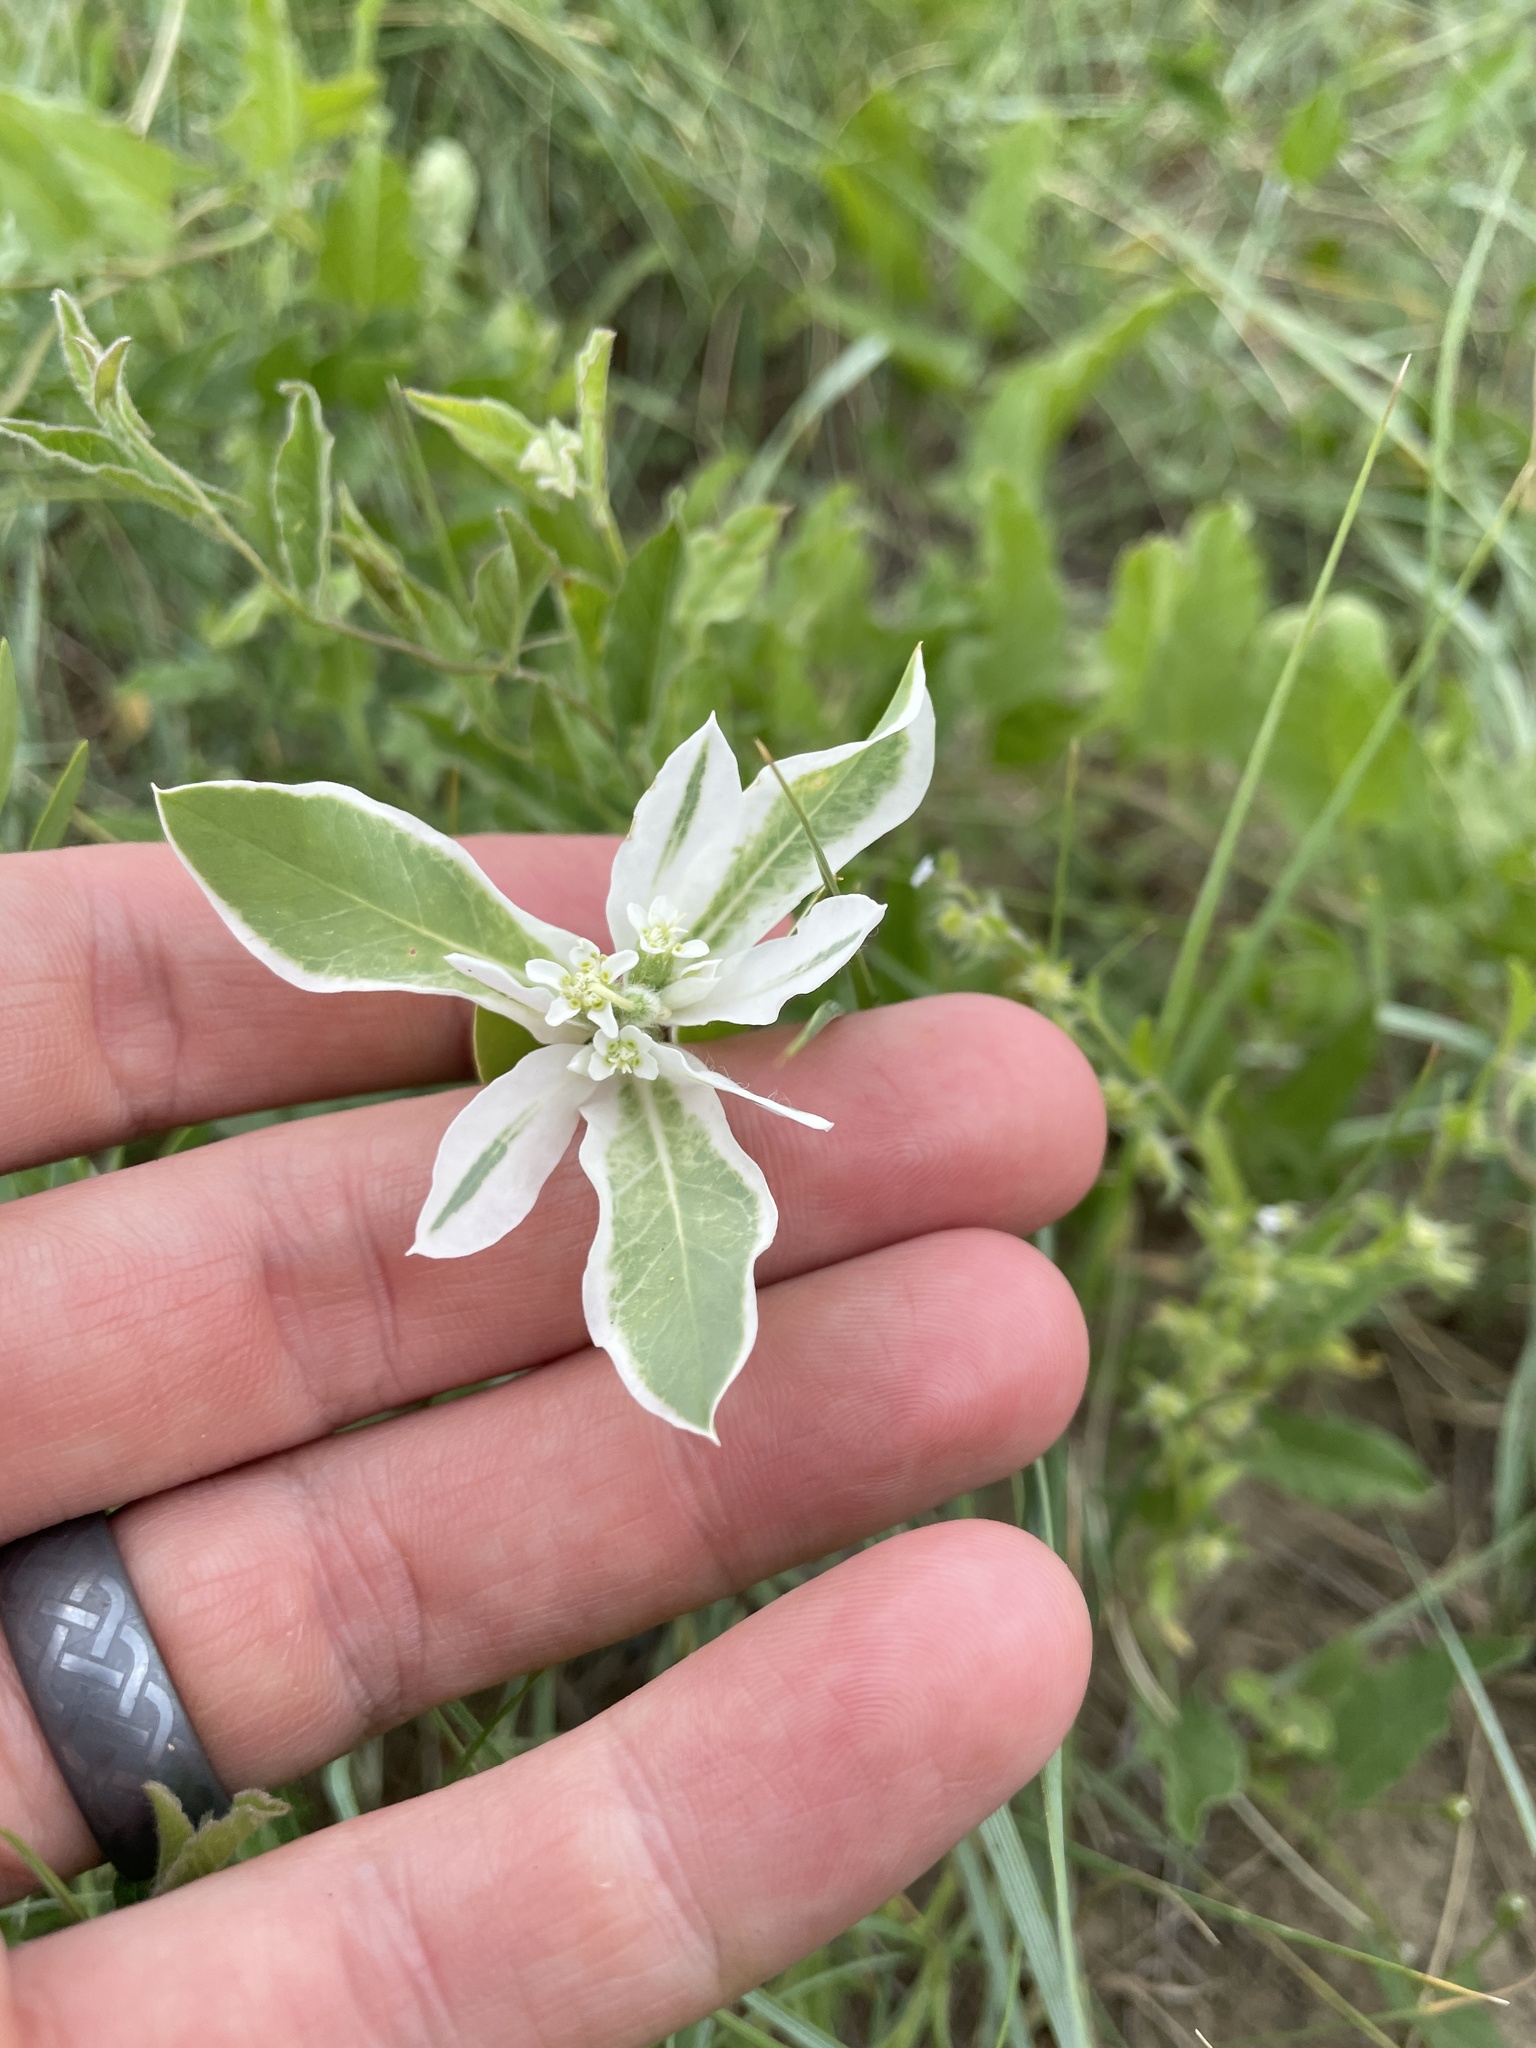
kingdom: Plantae
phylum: Tracheophyta
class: Magnoliopsida
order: Malpighiales
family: Euphorbiaceae
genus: Euphorbia
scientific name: Euphorbia marginata
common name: Ghostweed
